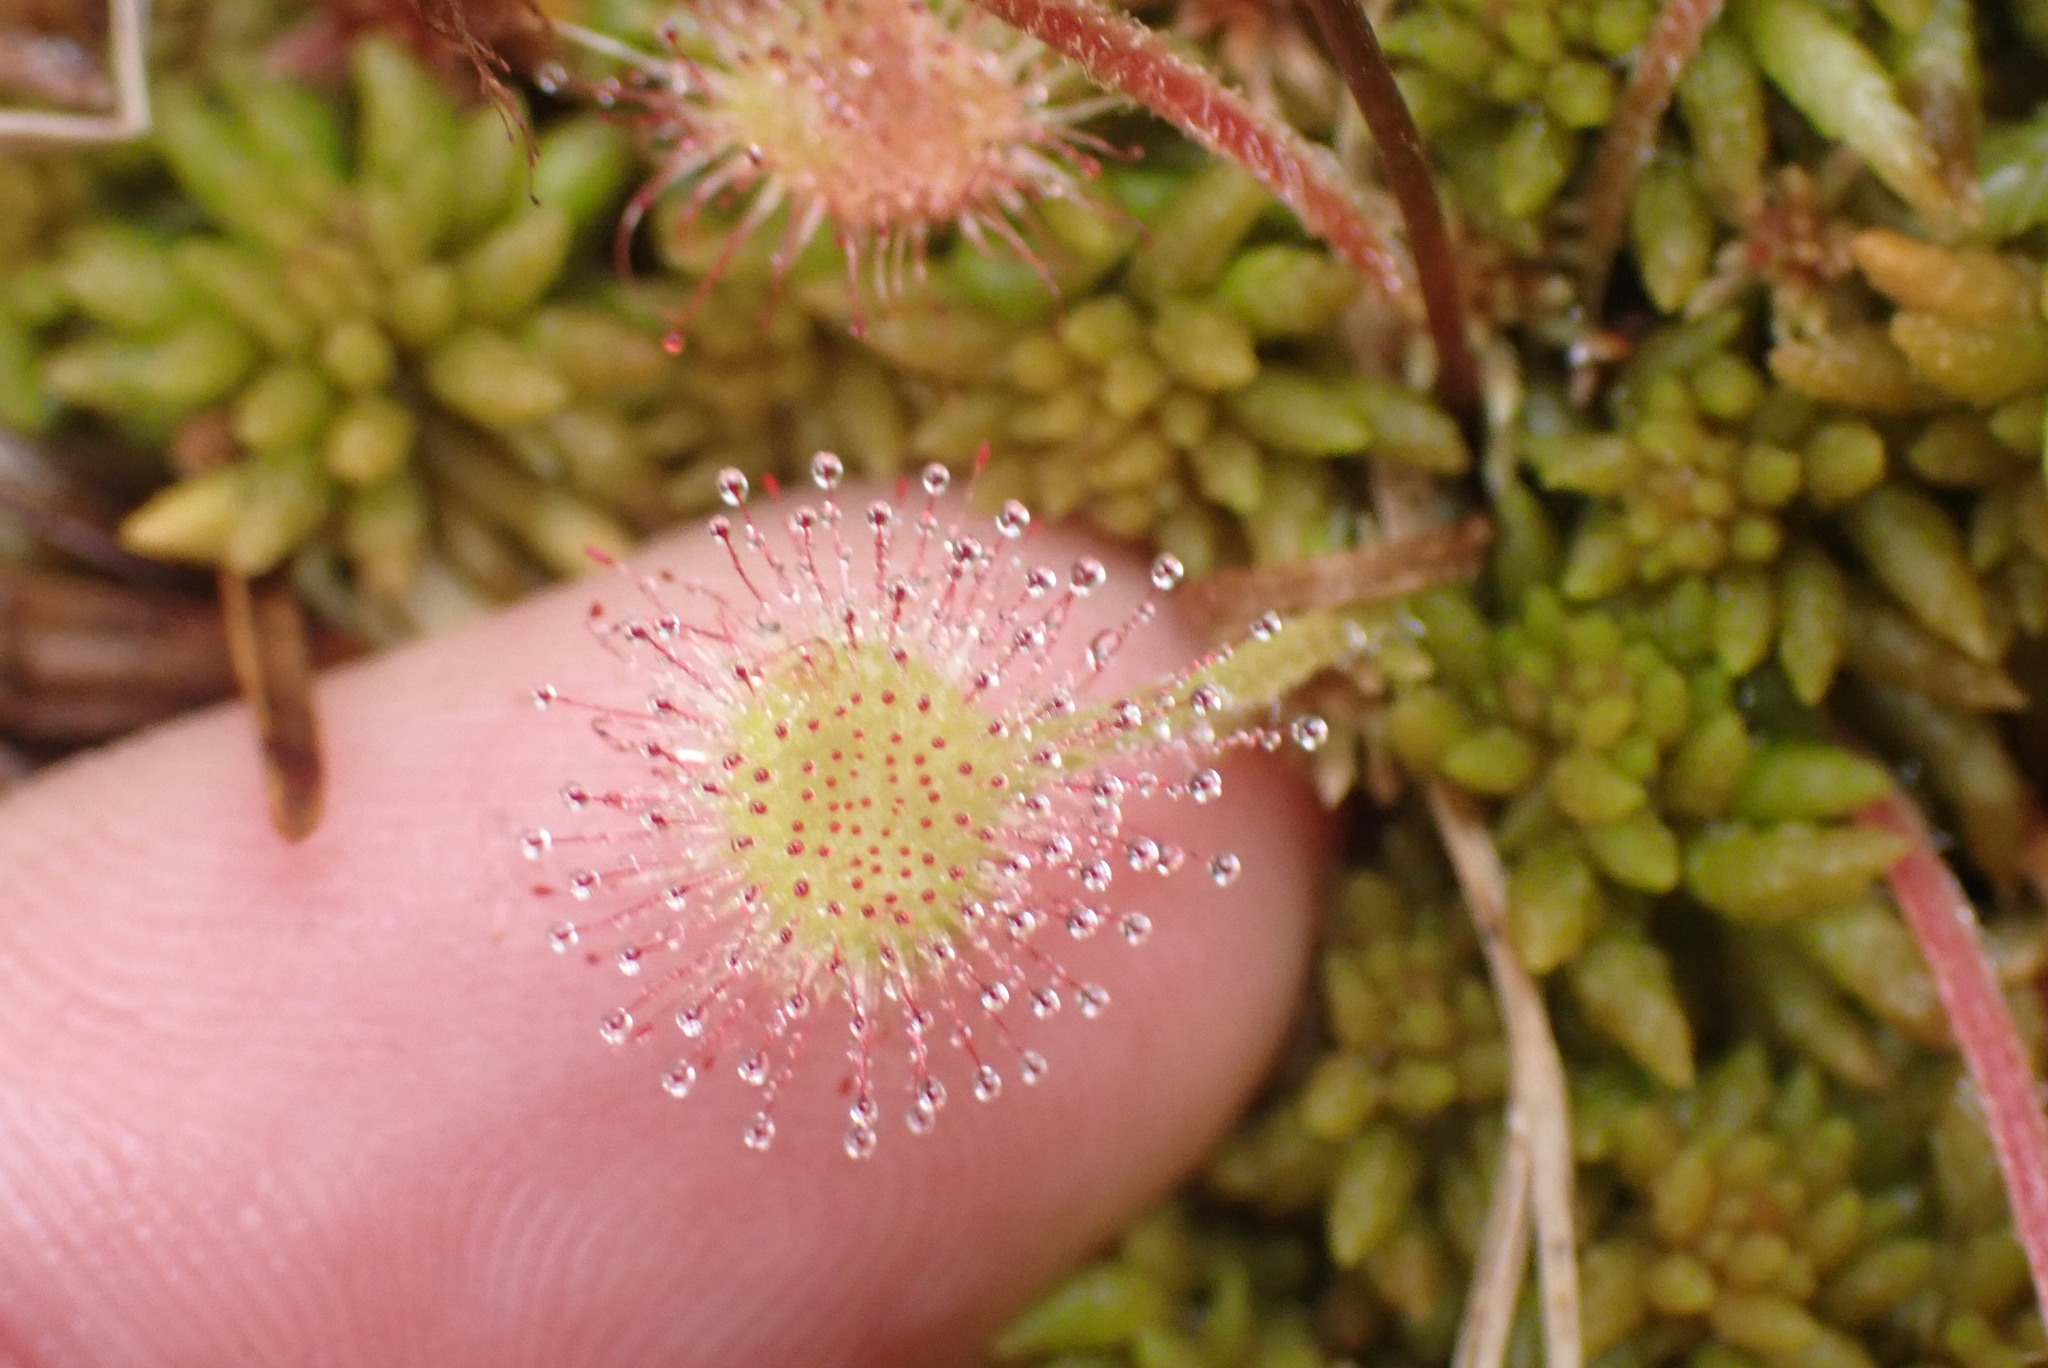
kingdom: Plantae
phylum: Tracheophyta
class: Magnoliopsida
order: Caryophyllales
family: Droseraceae
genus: Drosera
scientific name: Drosera rotundifolia
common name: Round-leaved sundew
